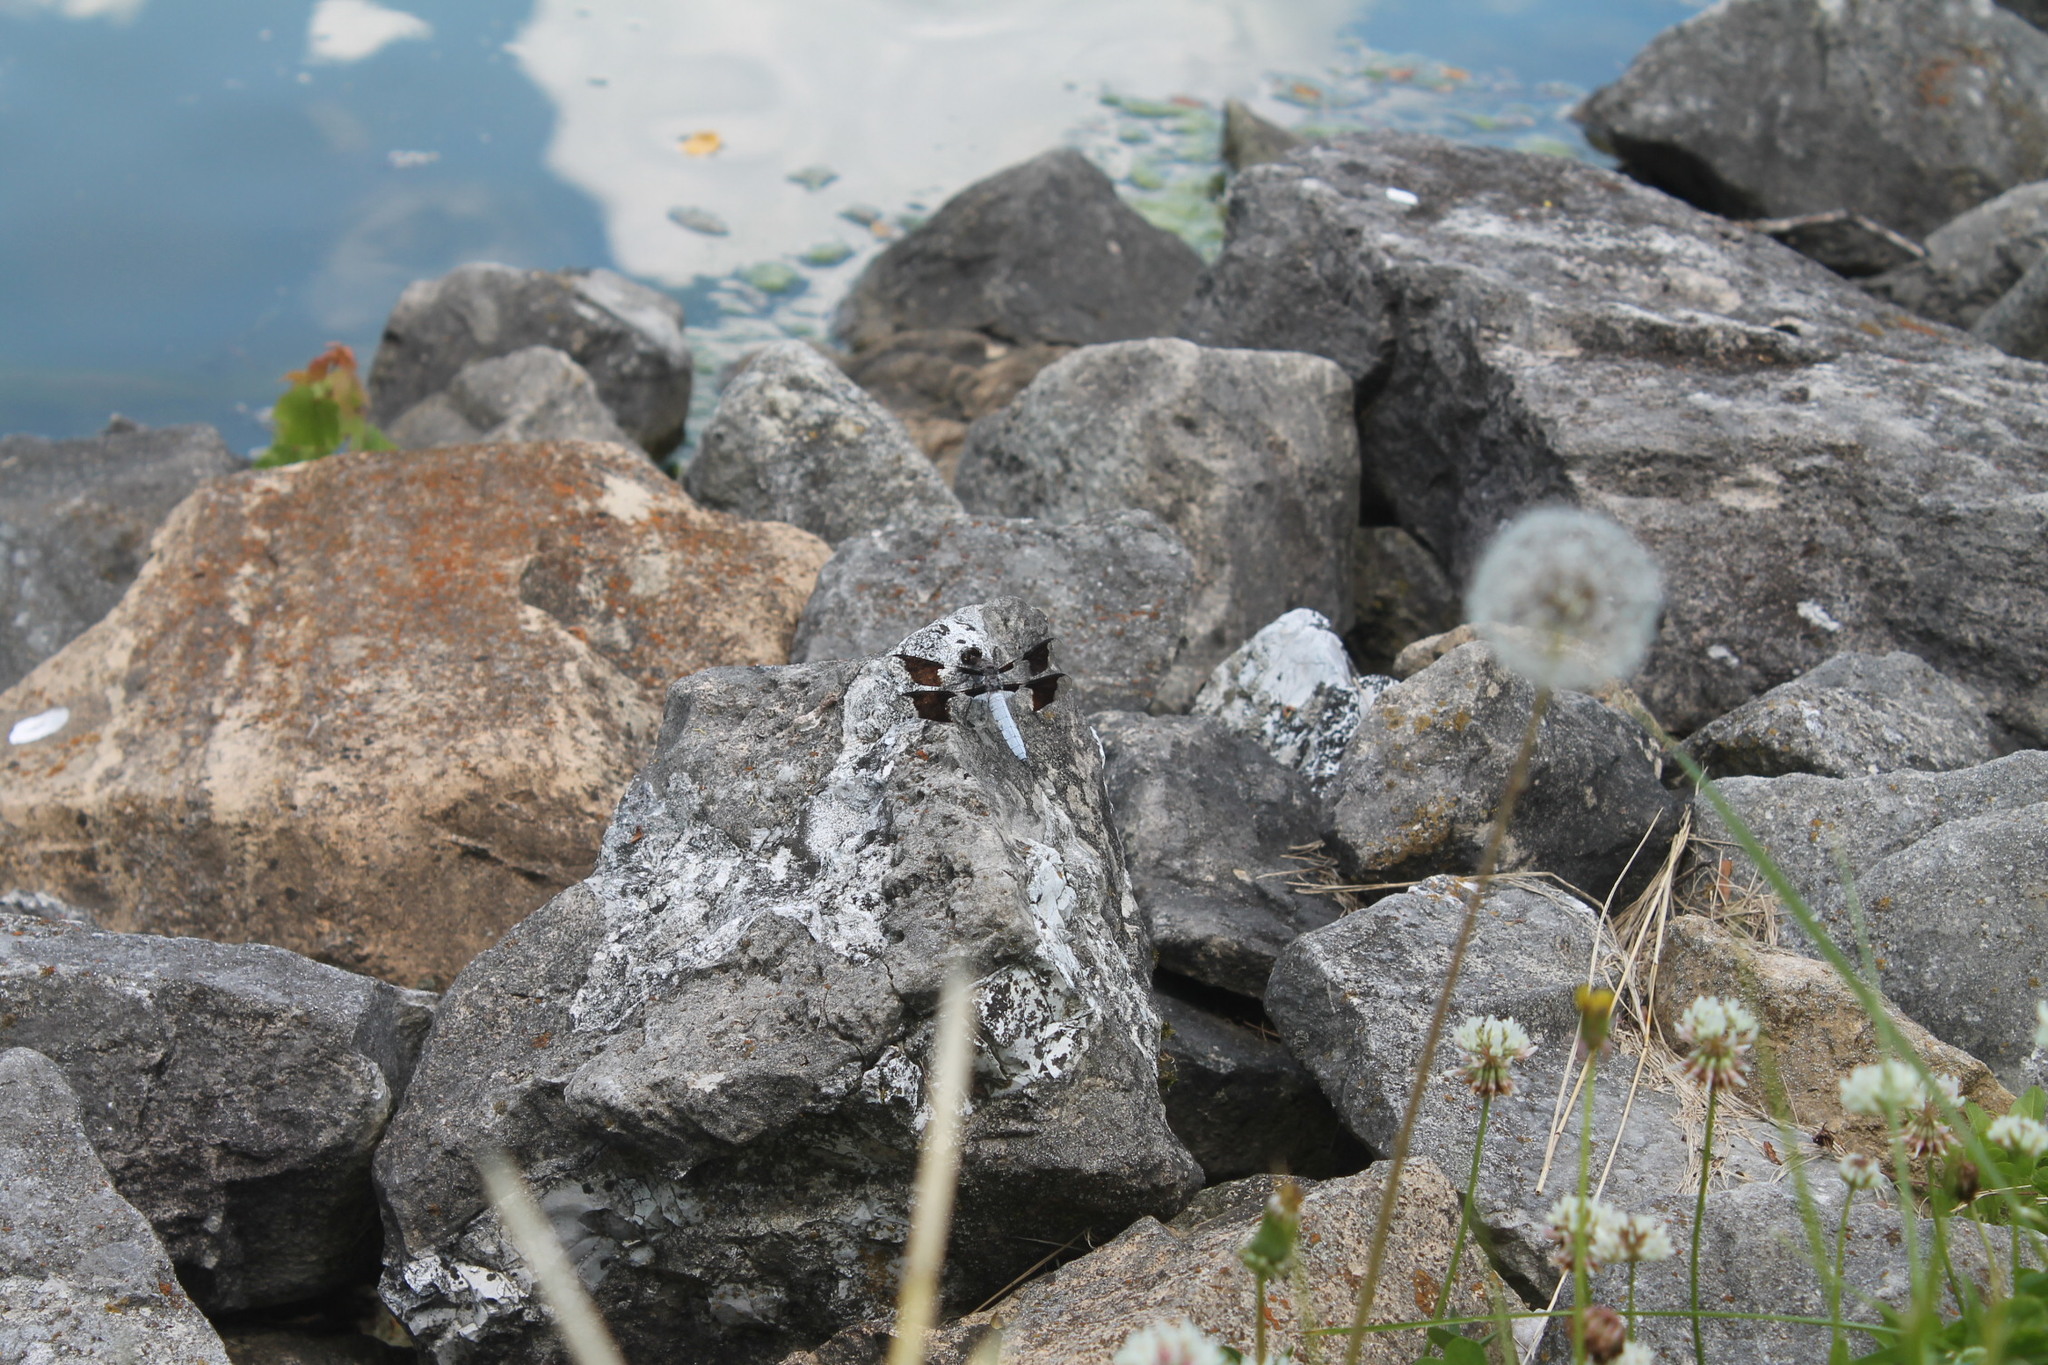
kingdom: Animalia
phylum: Arthropoda
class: Insecta
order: Odonata
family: Libellulidae
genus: Plathemis
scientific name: Plathemis lydia
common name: Common whitetail
